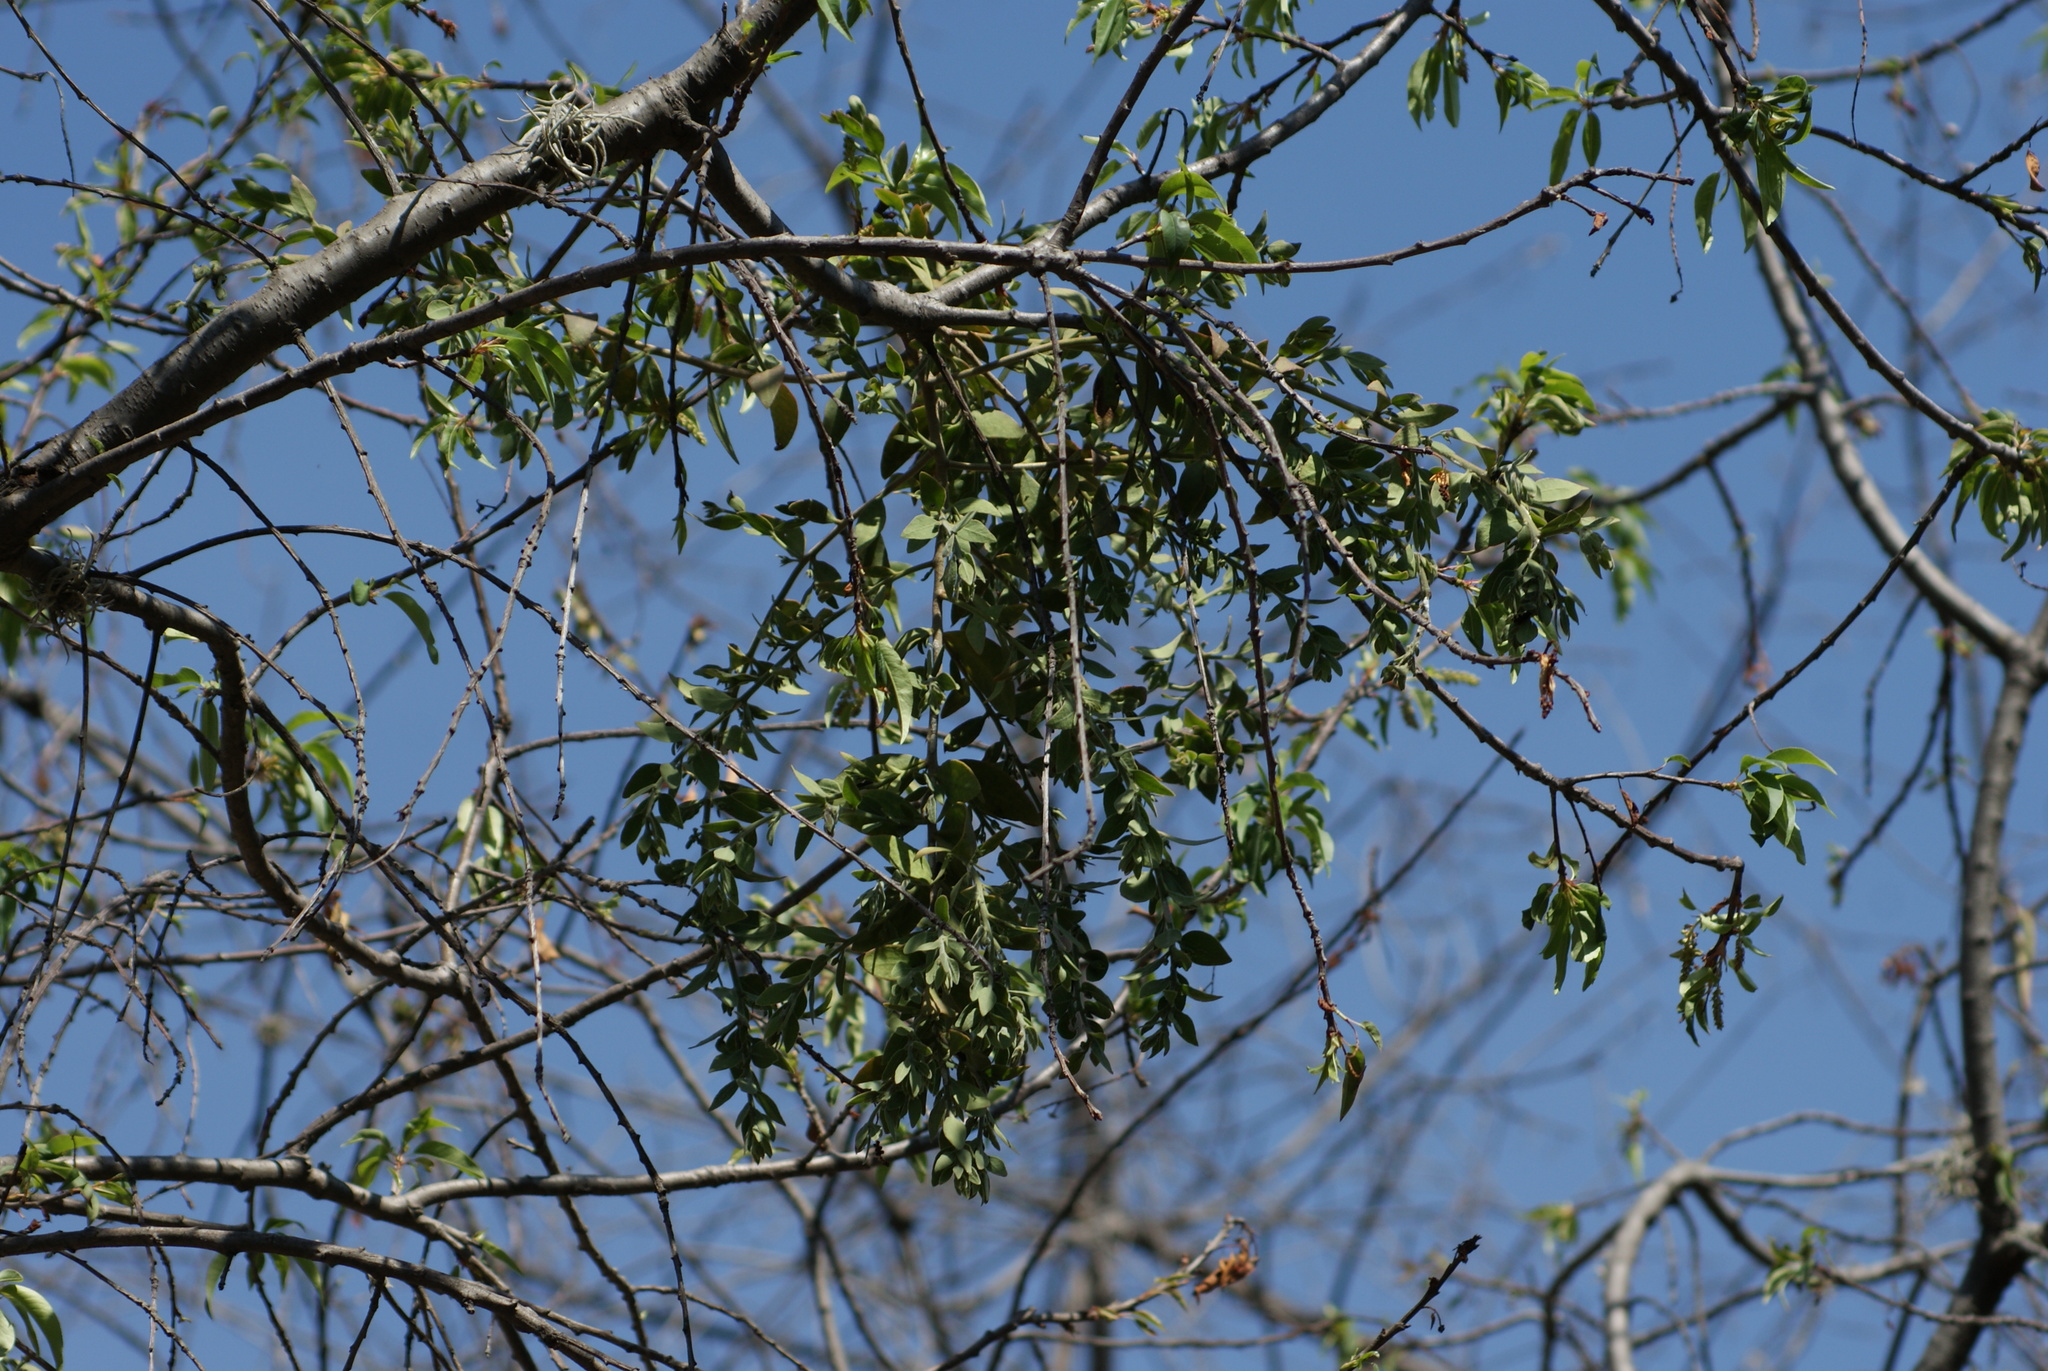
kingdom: Plantae
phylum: Tracheophyta
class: Magnoliopsida
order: Santalales
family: Loranthaceae
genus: Cladocolea
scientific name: Cladocolea loniceroides
